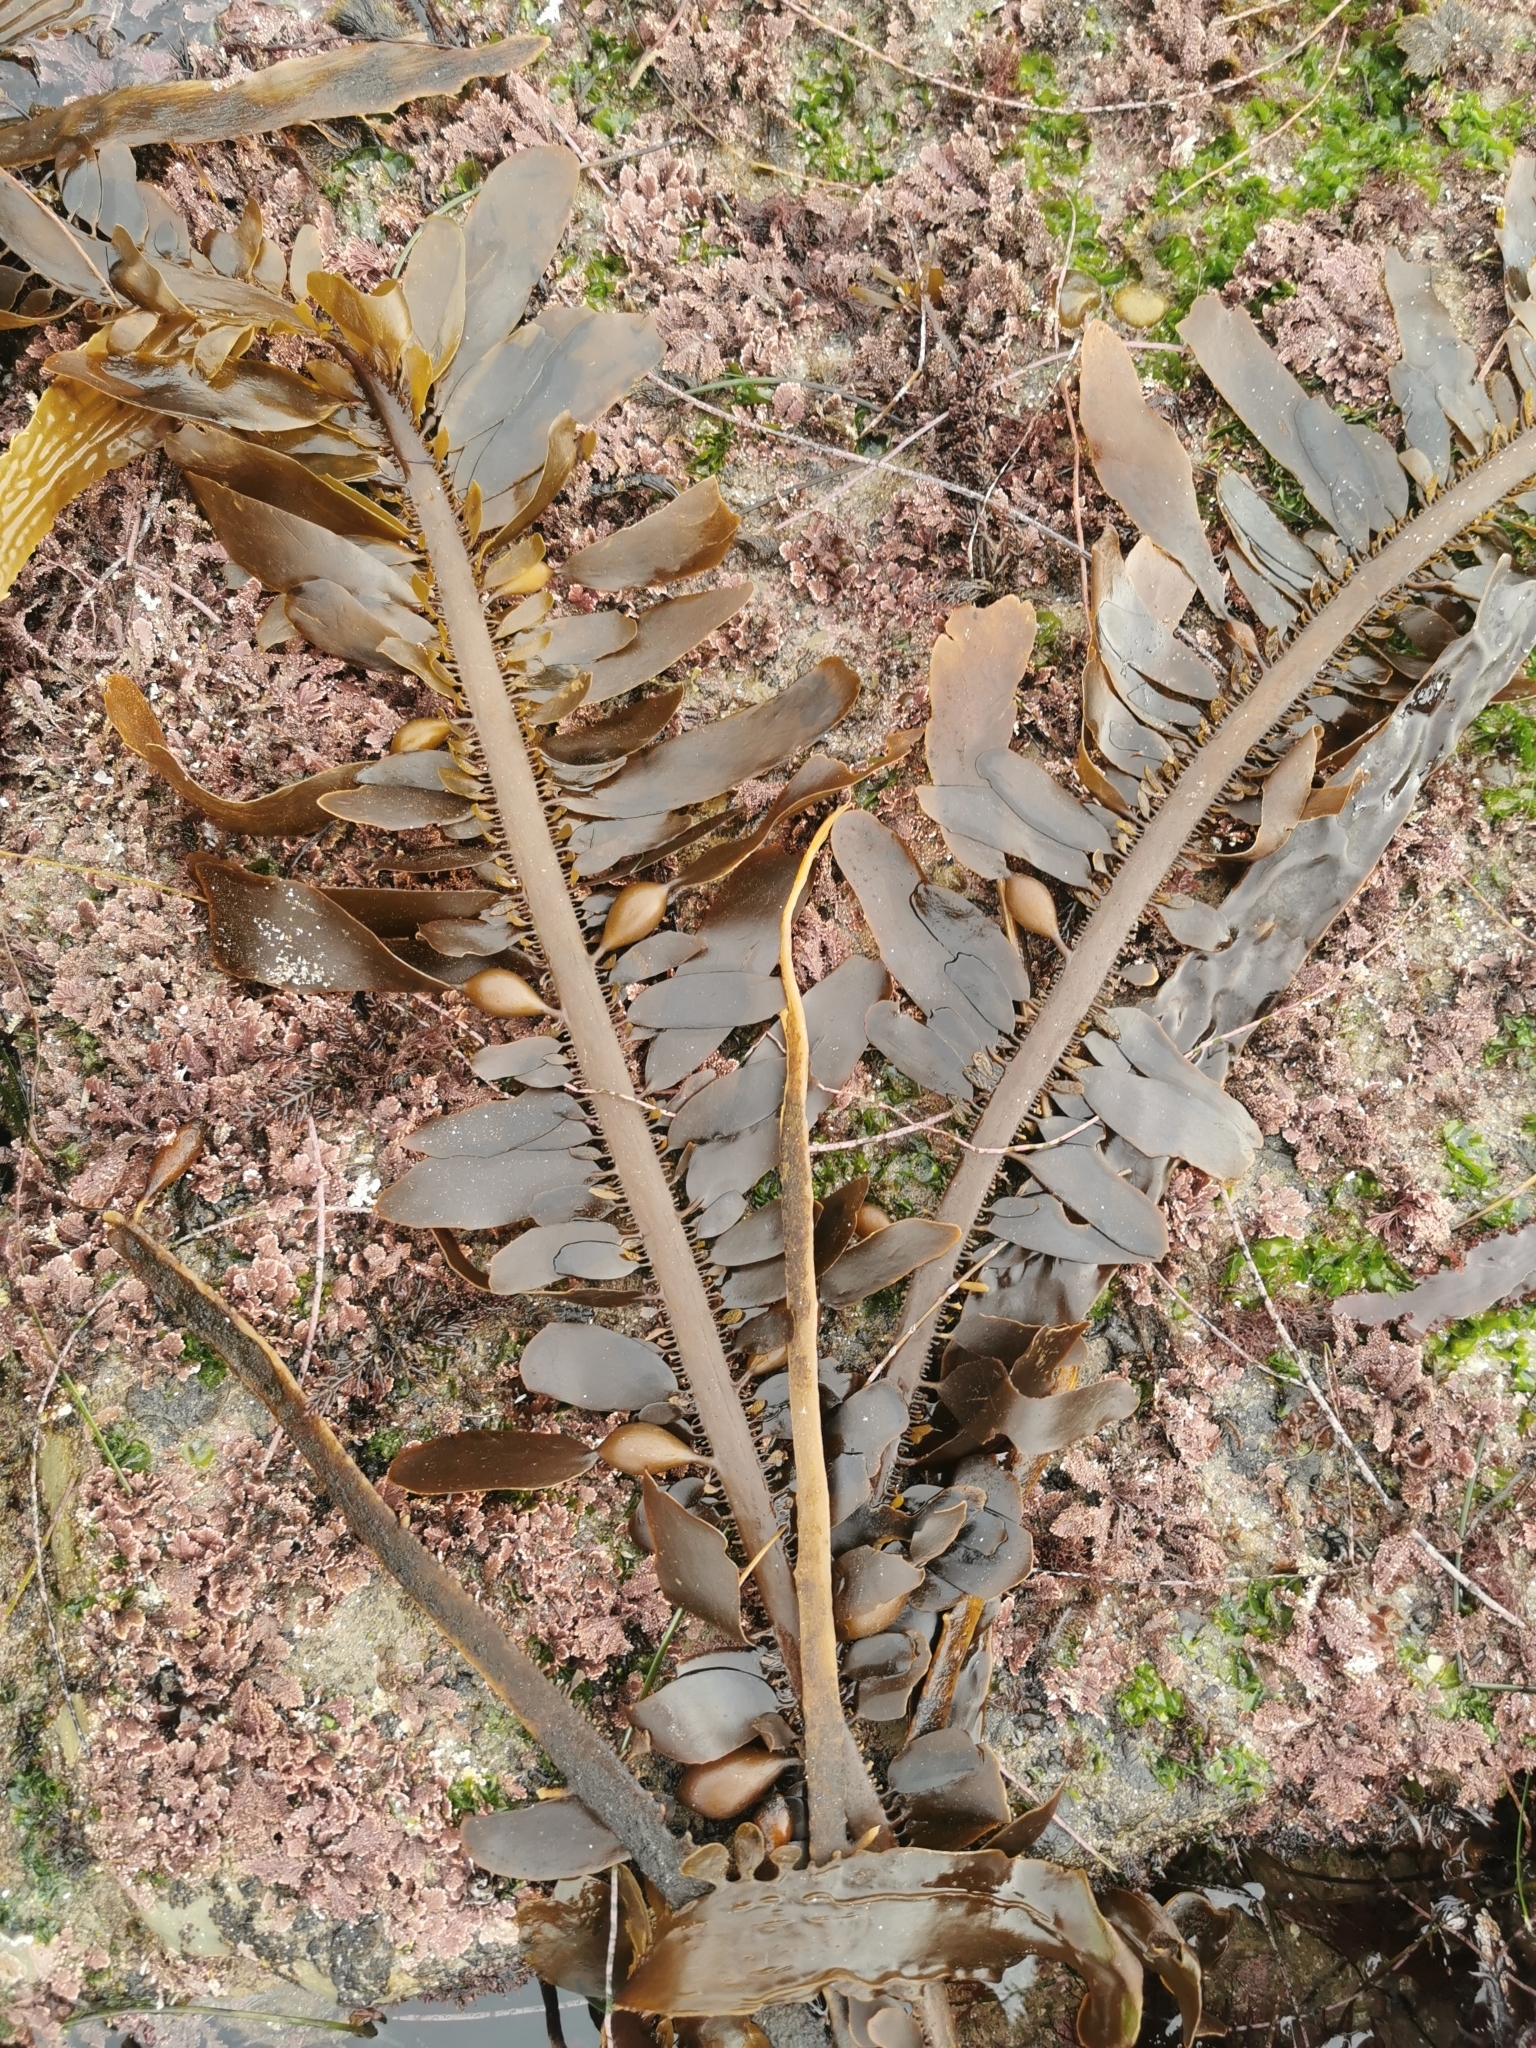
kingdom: Chromista
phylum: Ochrophyta
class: Phaeophyceae
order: Laminariales
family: Lessoniaceae
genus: Egregia
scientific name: Egregia menziesii
